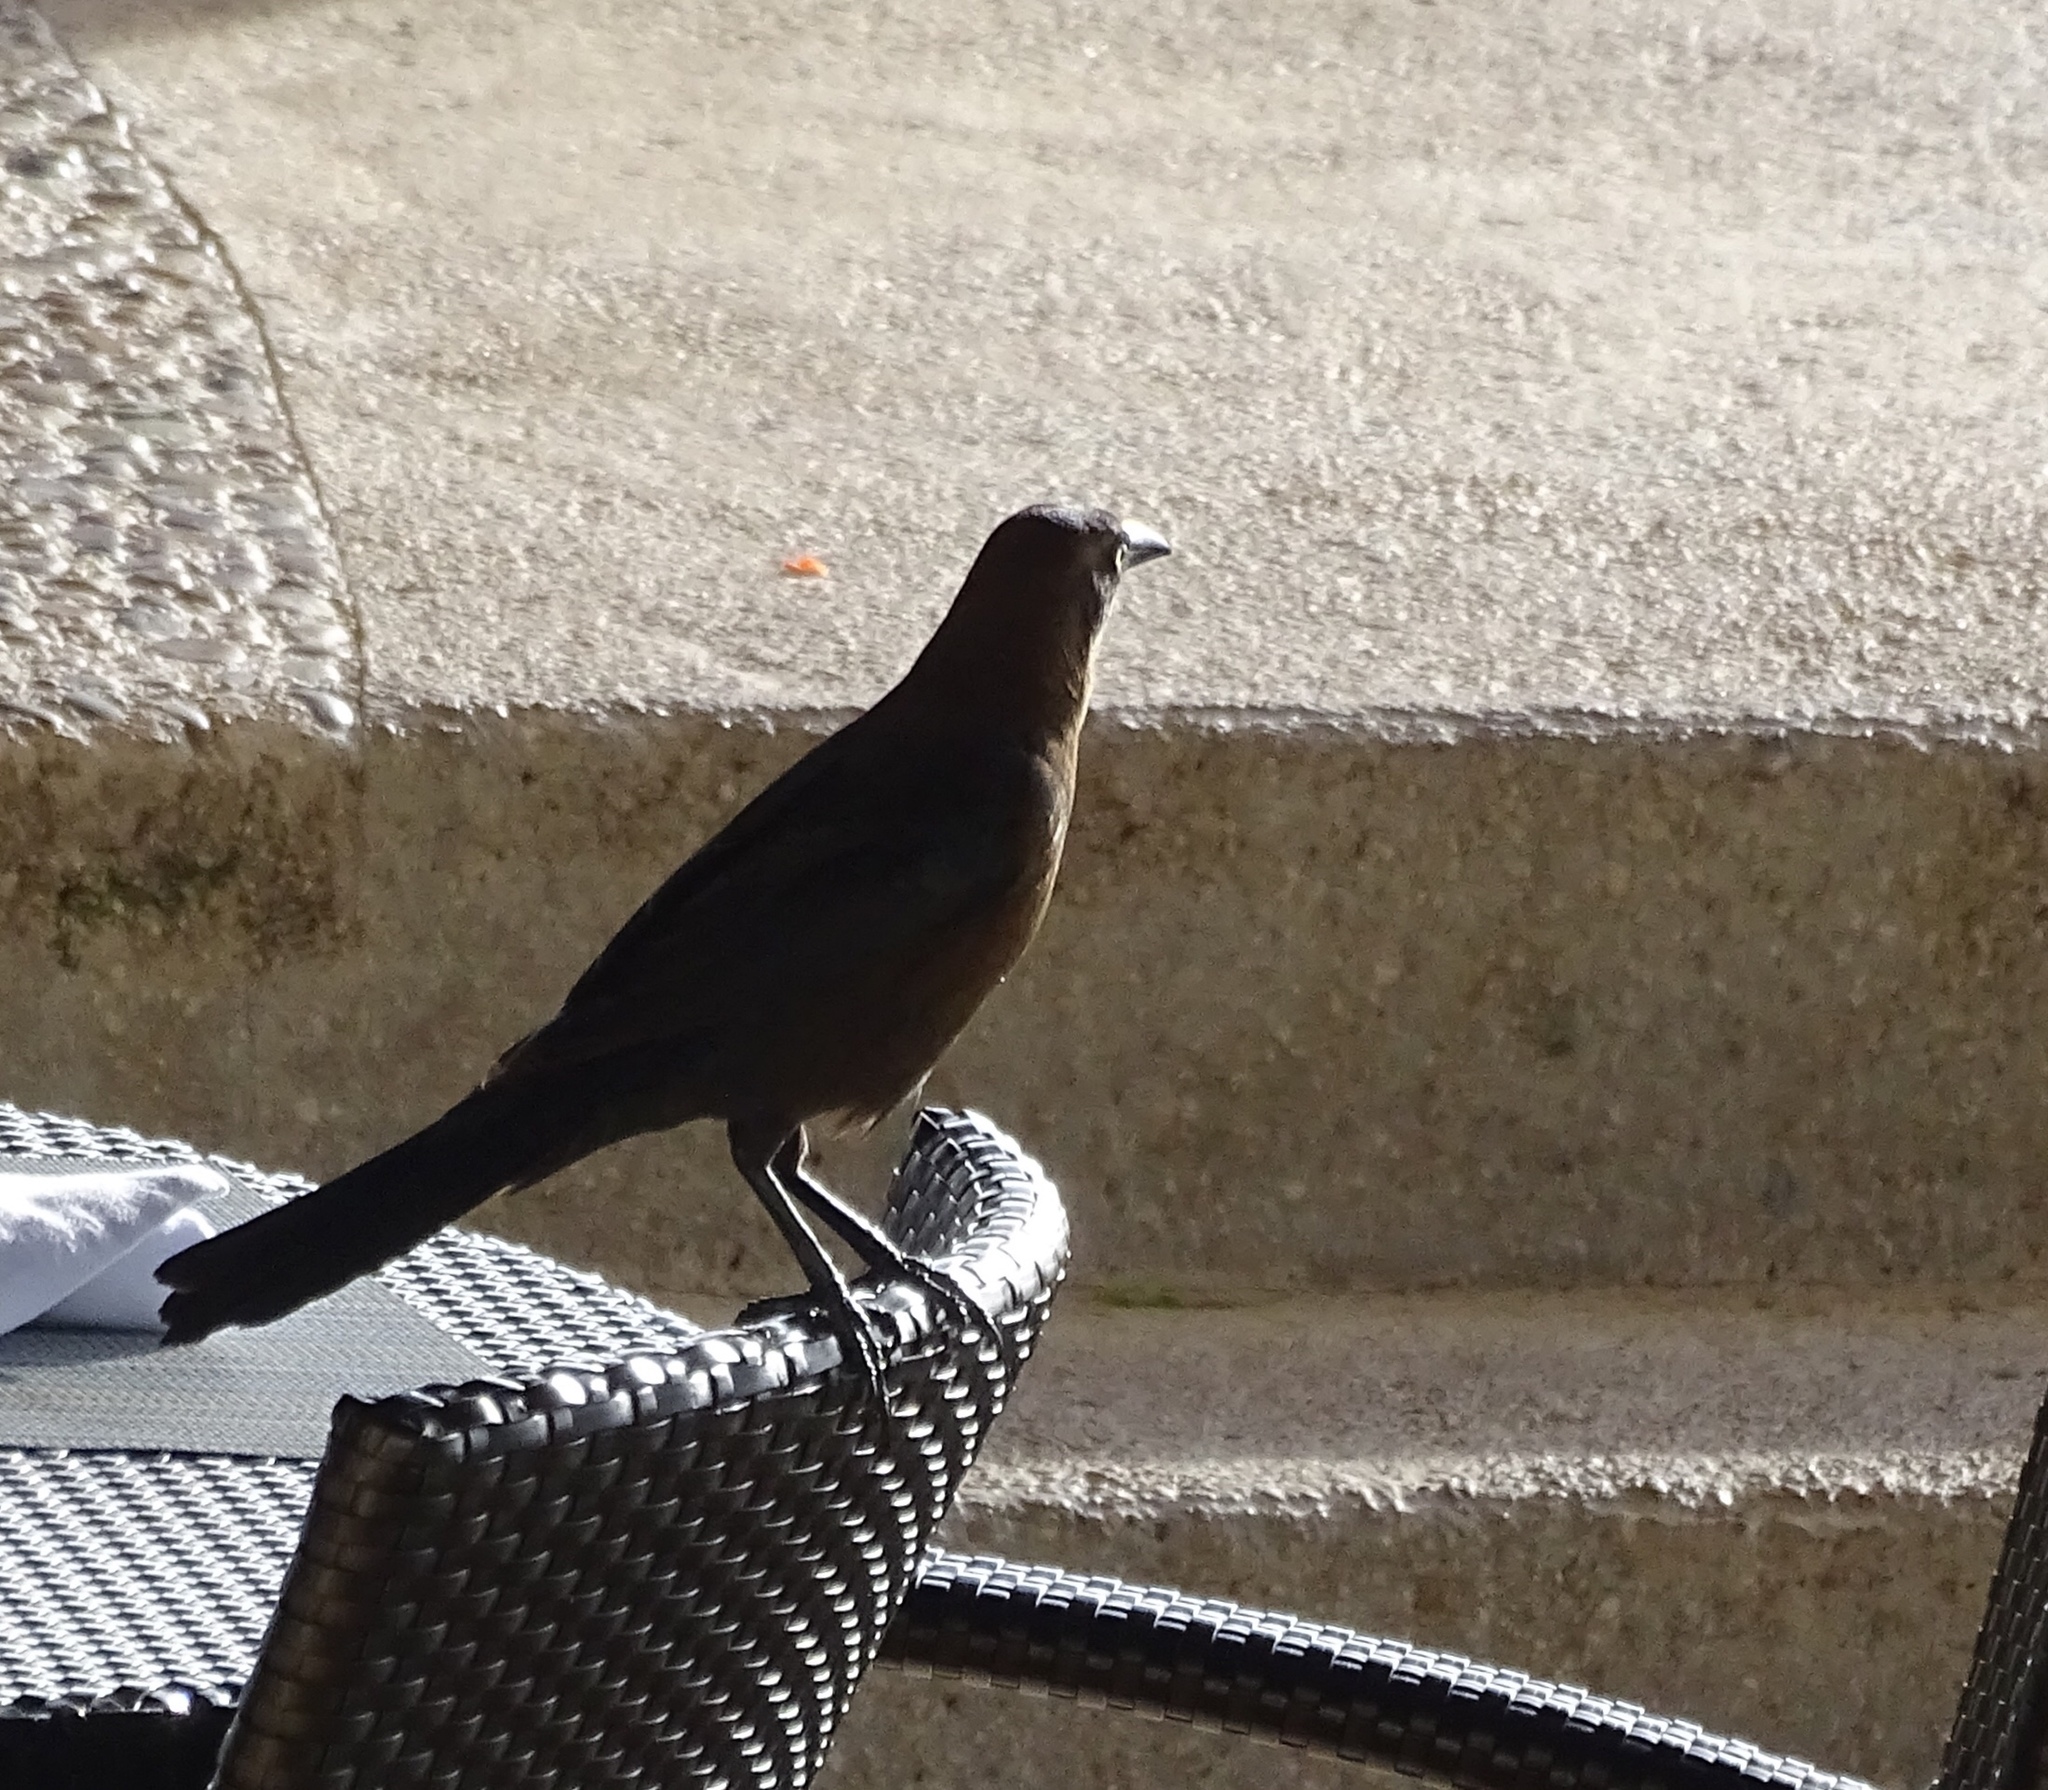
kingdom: Animalia
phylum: Chordata
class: Aves
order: Passeriformes
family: Icteridae
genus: Quiscalus
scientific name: Quiscalus mexicanus
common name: Great-tailed grackle
